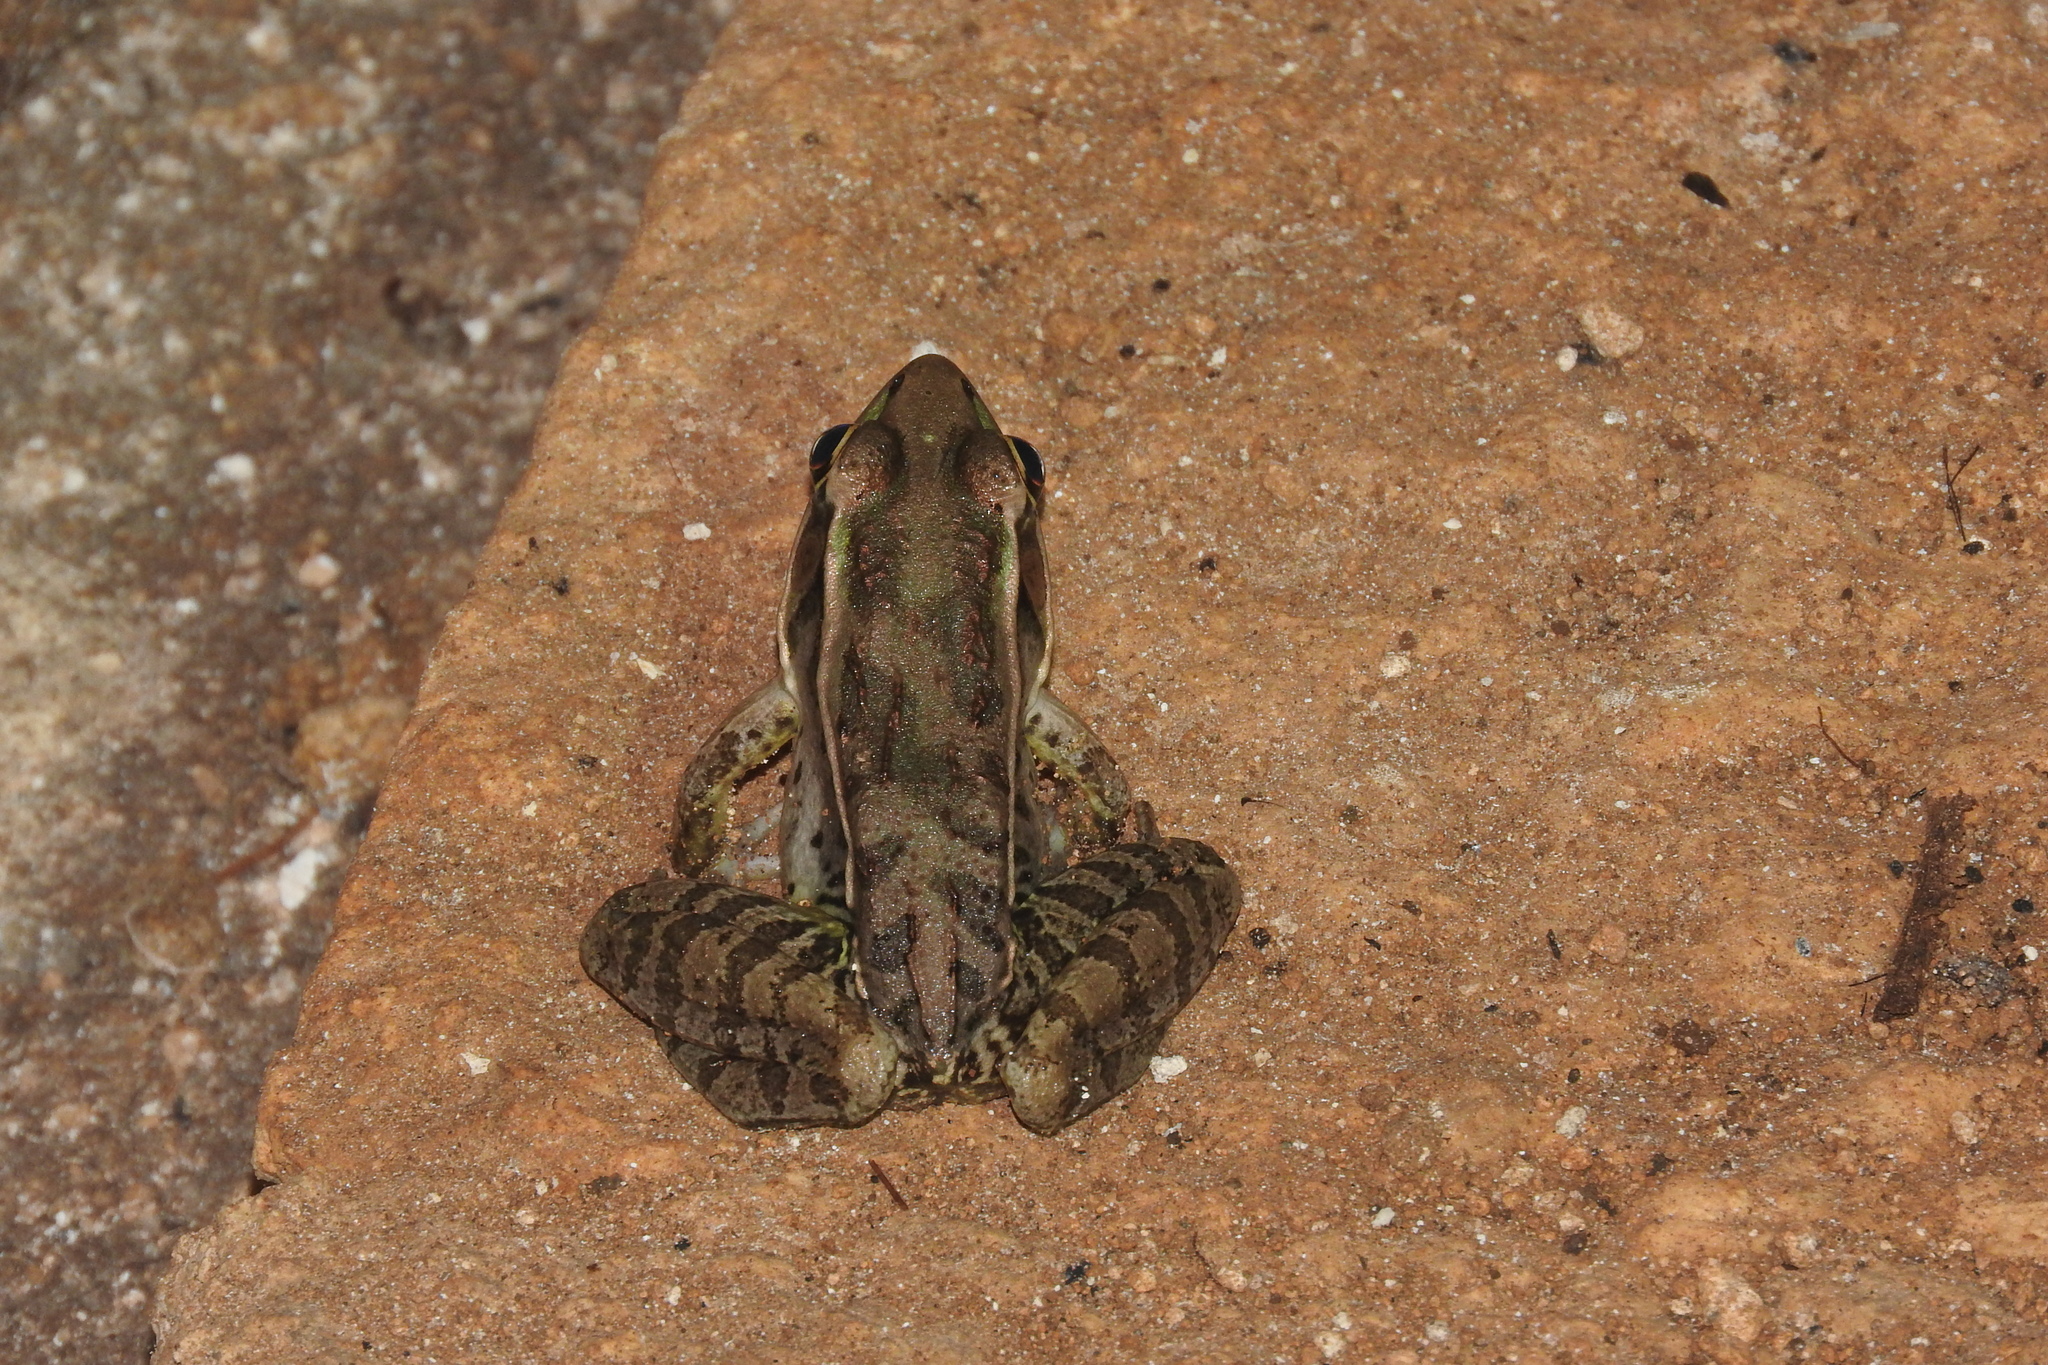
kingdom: Animalia
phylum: Chordata
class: Amphibia
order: Anura
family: Ranidae
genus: Lithobates
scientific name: Lithobates brownorum
